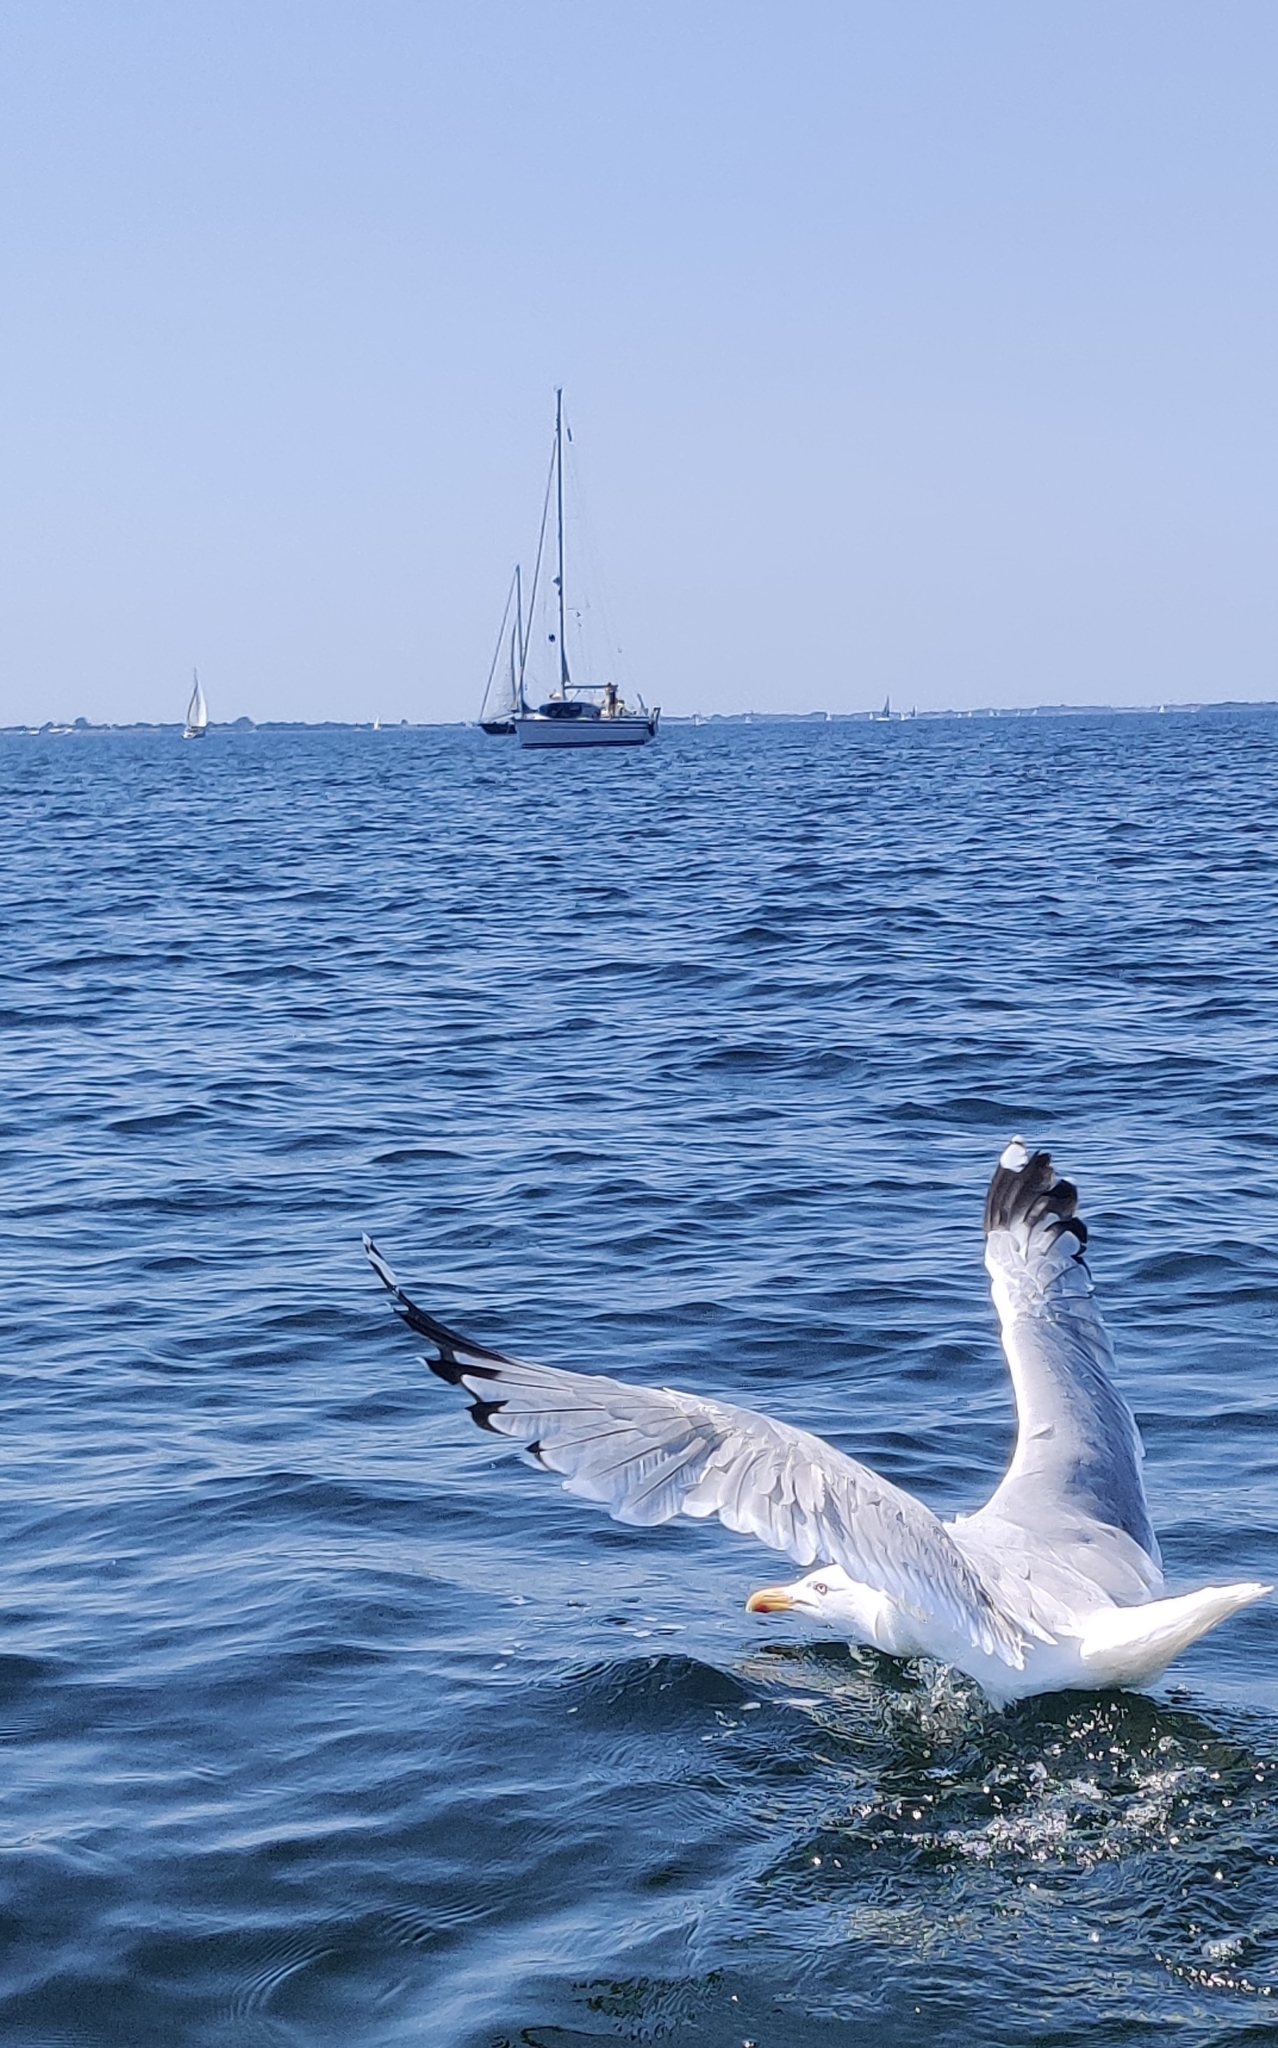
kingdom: Animalia
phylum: Chordata
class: Aves
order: Charadriiformes
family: Laridae
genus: Larus
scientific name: Larus argentatus
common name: Herring gull
